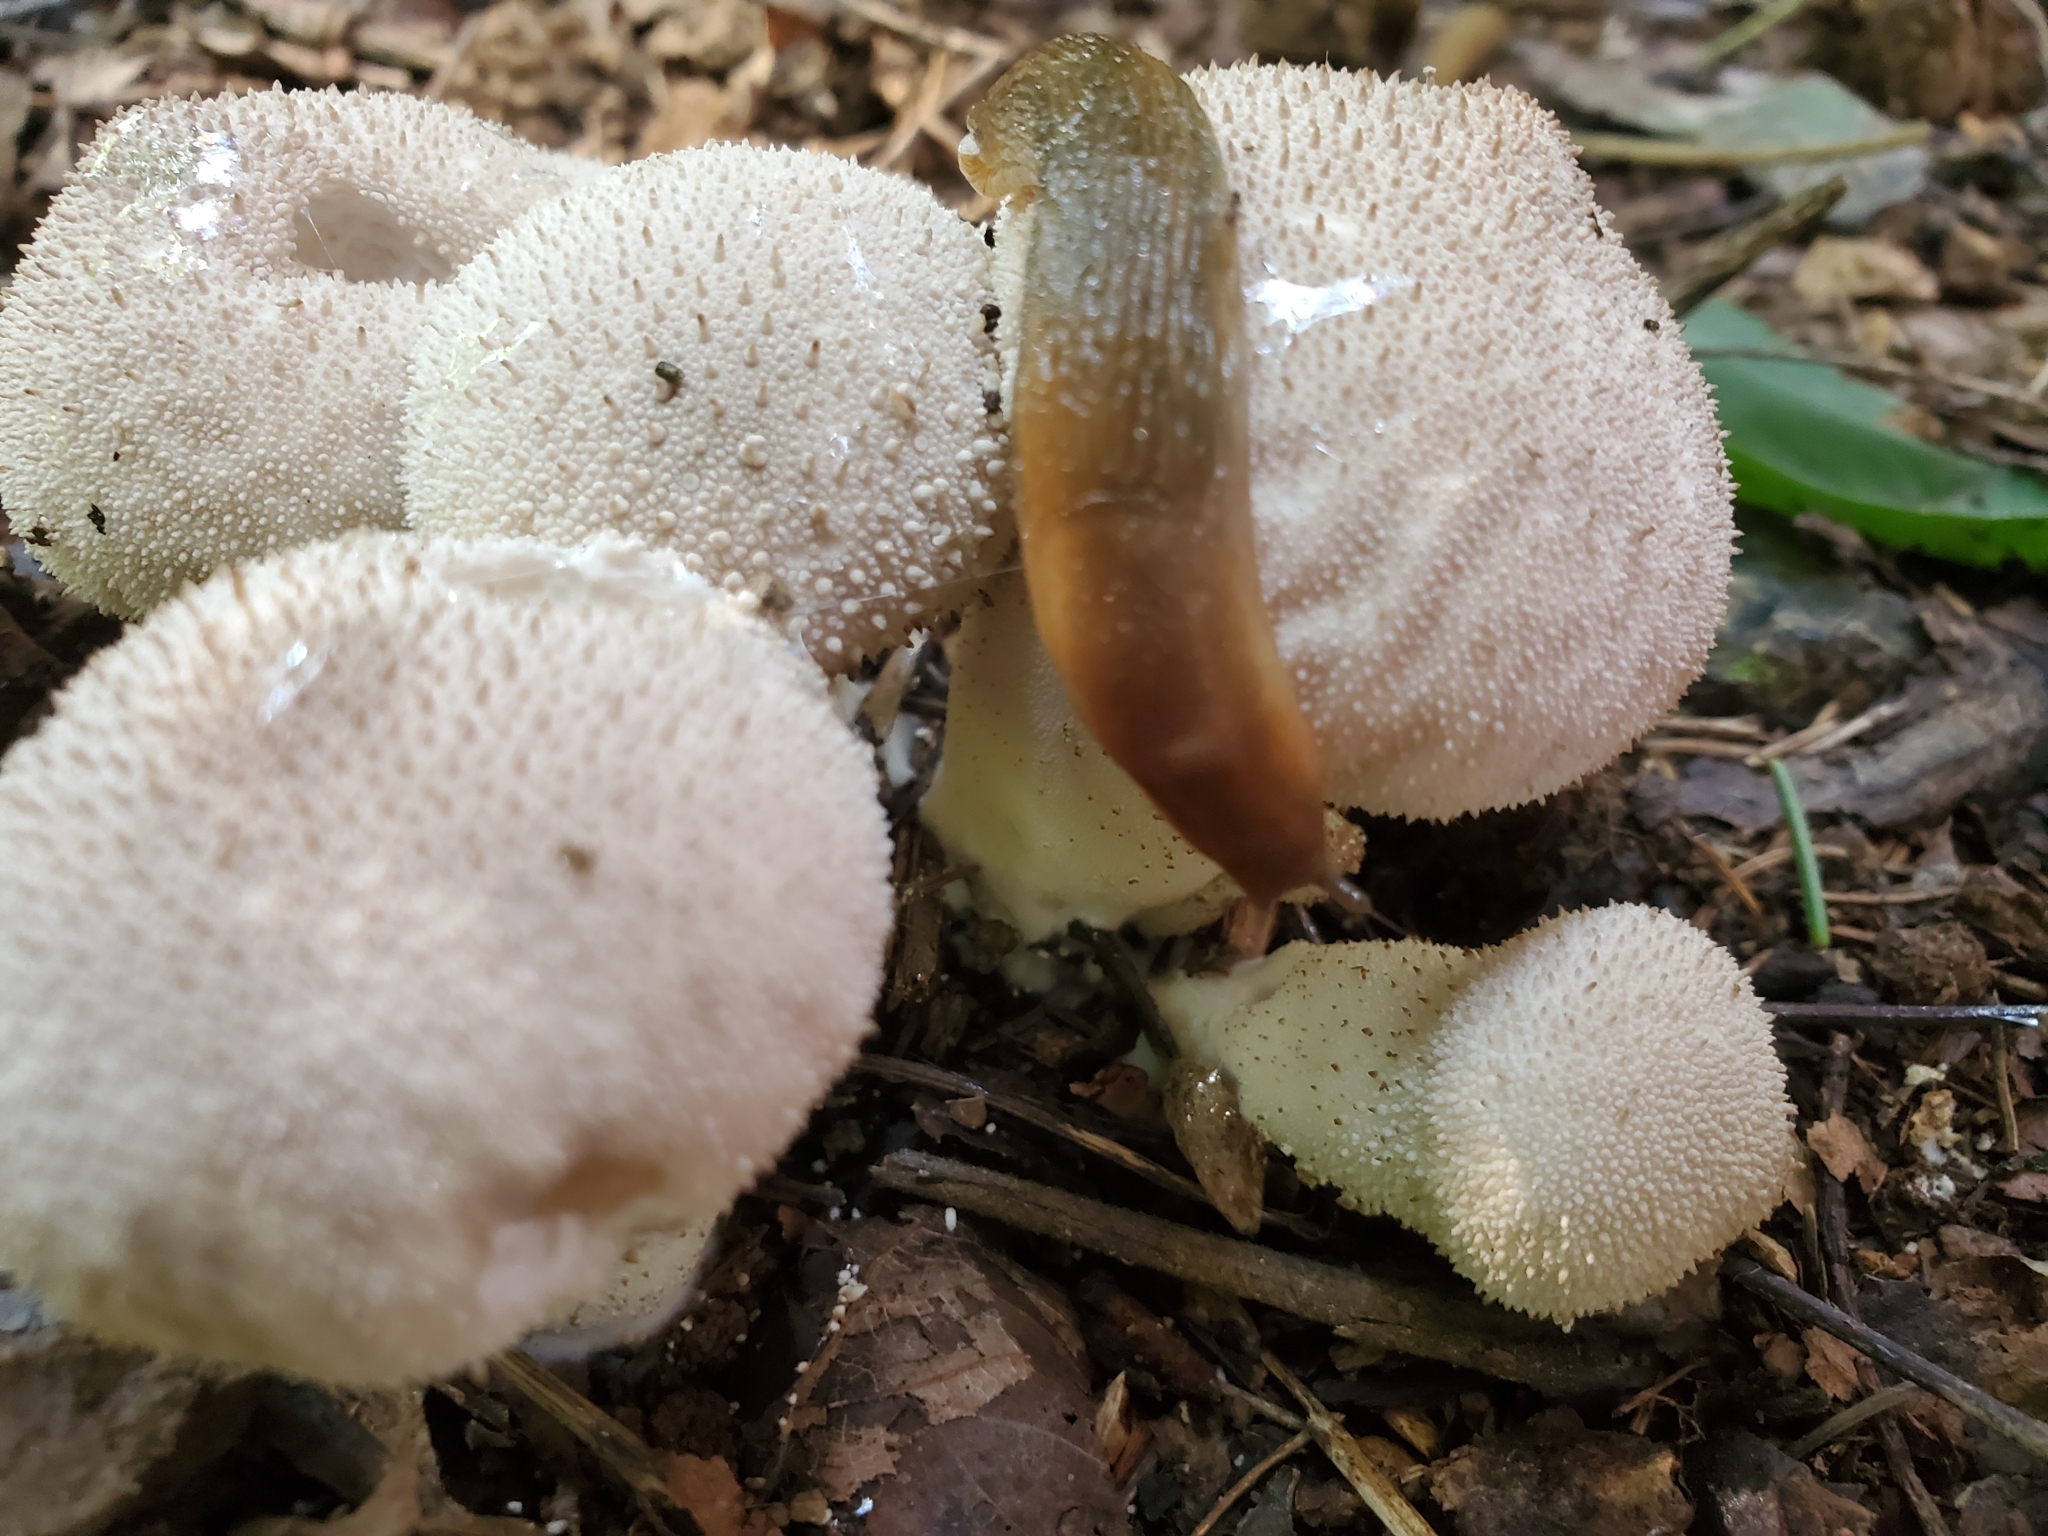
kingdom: Fungi
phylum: Basidiomycota
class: Agaricomycetes
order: Agaricales
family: Lycoperdaceae
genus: Lycoperdon
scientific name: Lycoperdon perlatum
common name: Common puffball
